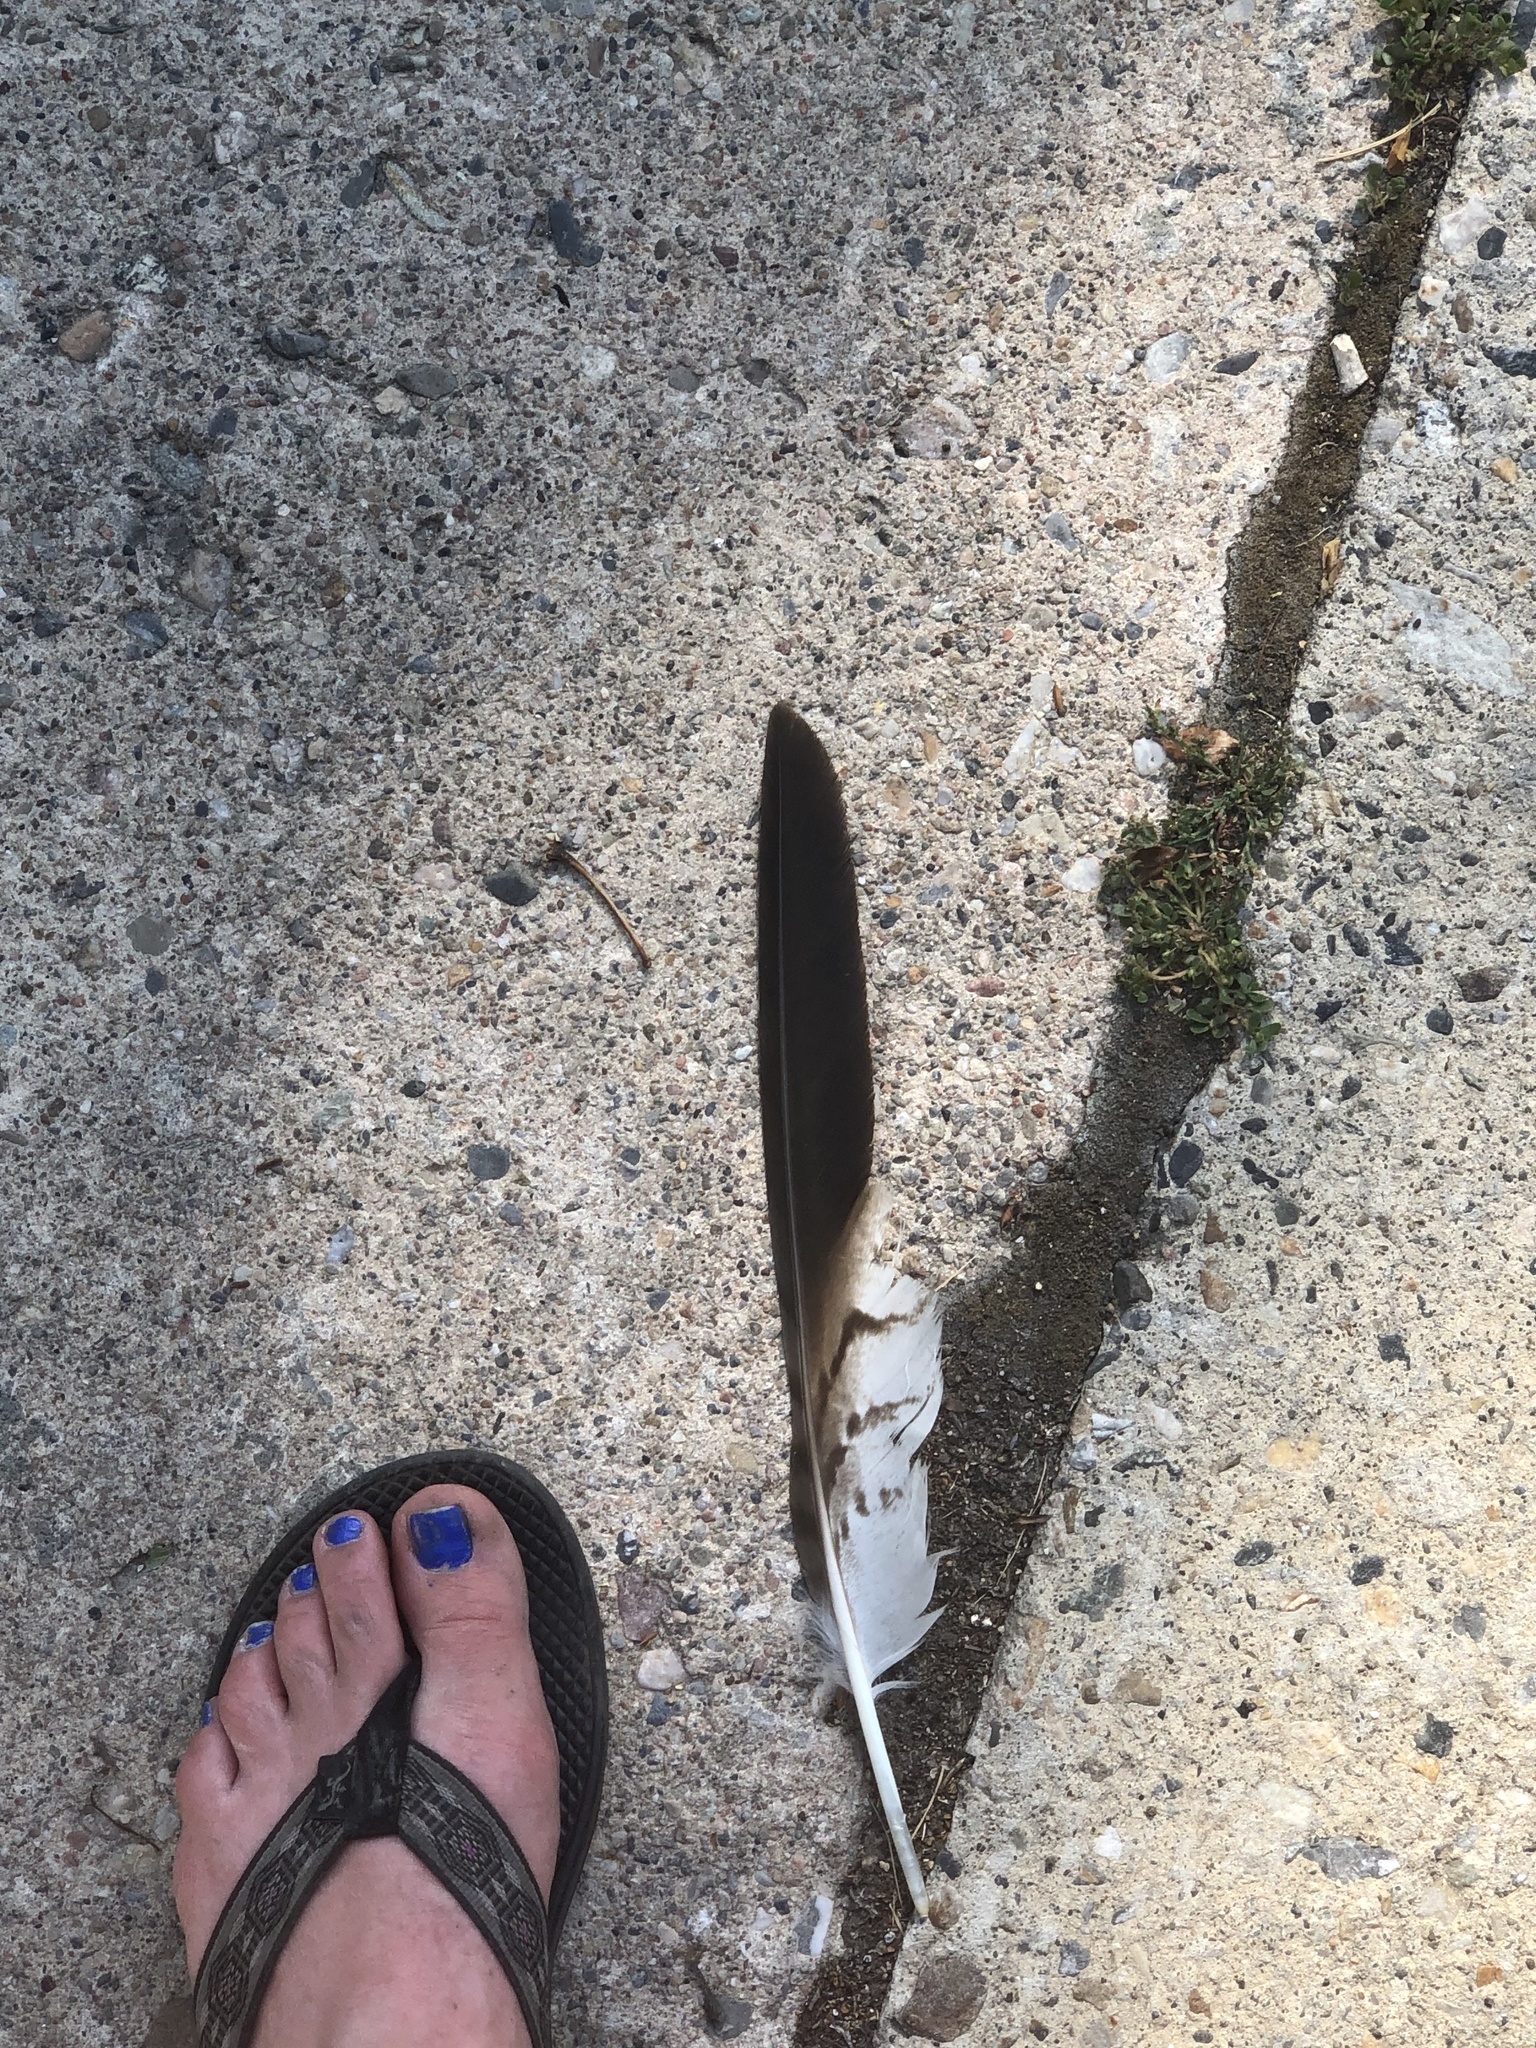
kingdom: Animalia
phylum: Chordata
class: Aves
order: Accipitriformes
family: Accipitridae
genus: Buteo
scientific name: Buteo jamaicensis
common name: Red-tailed hawk
